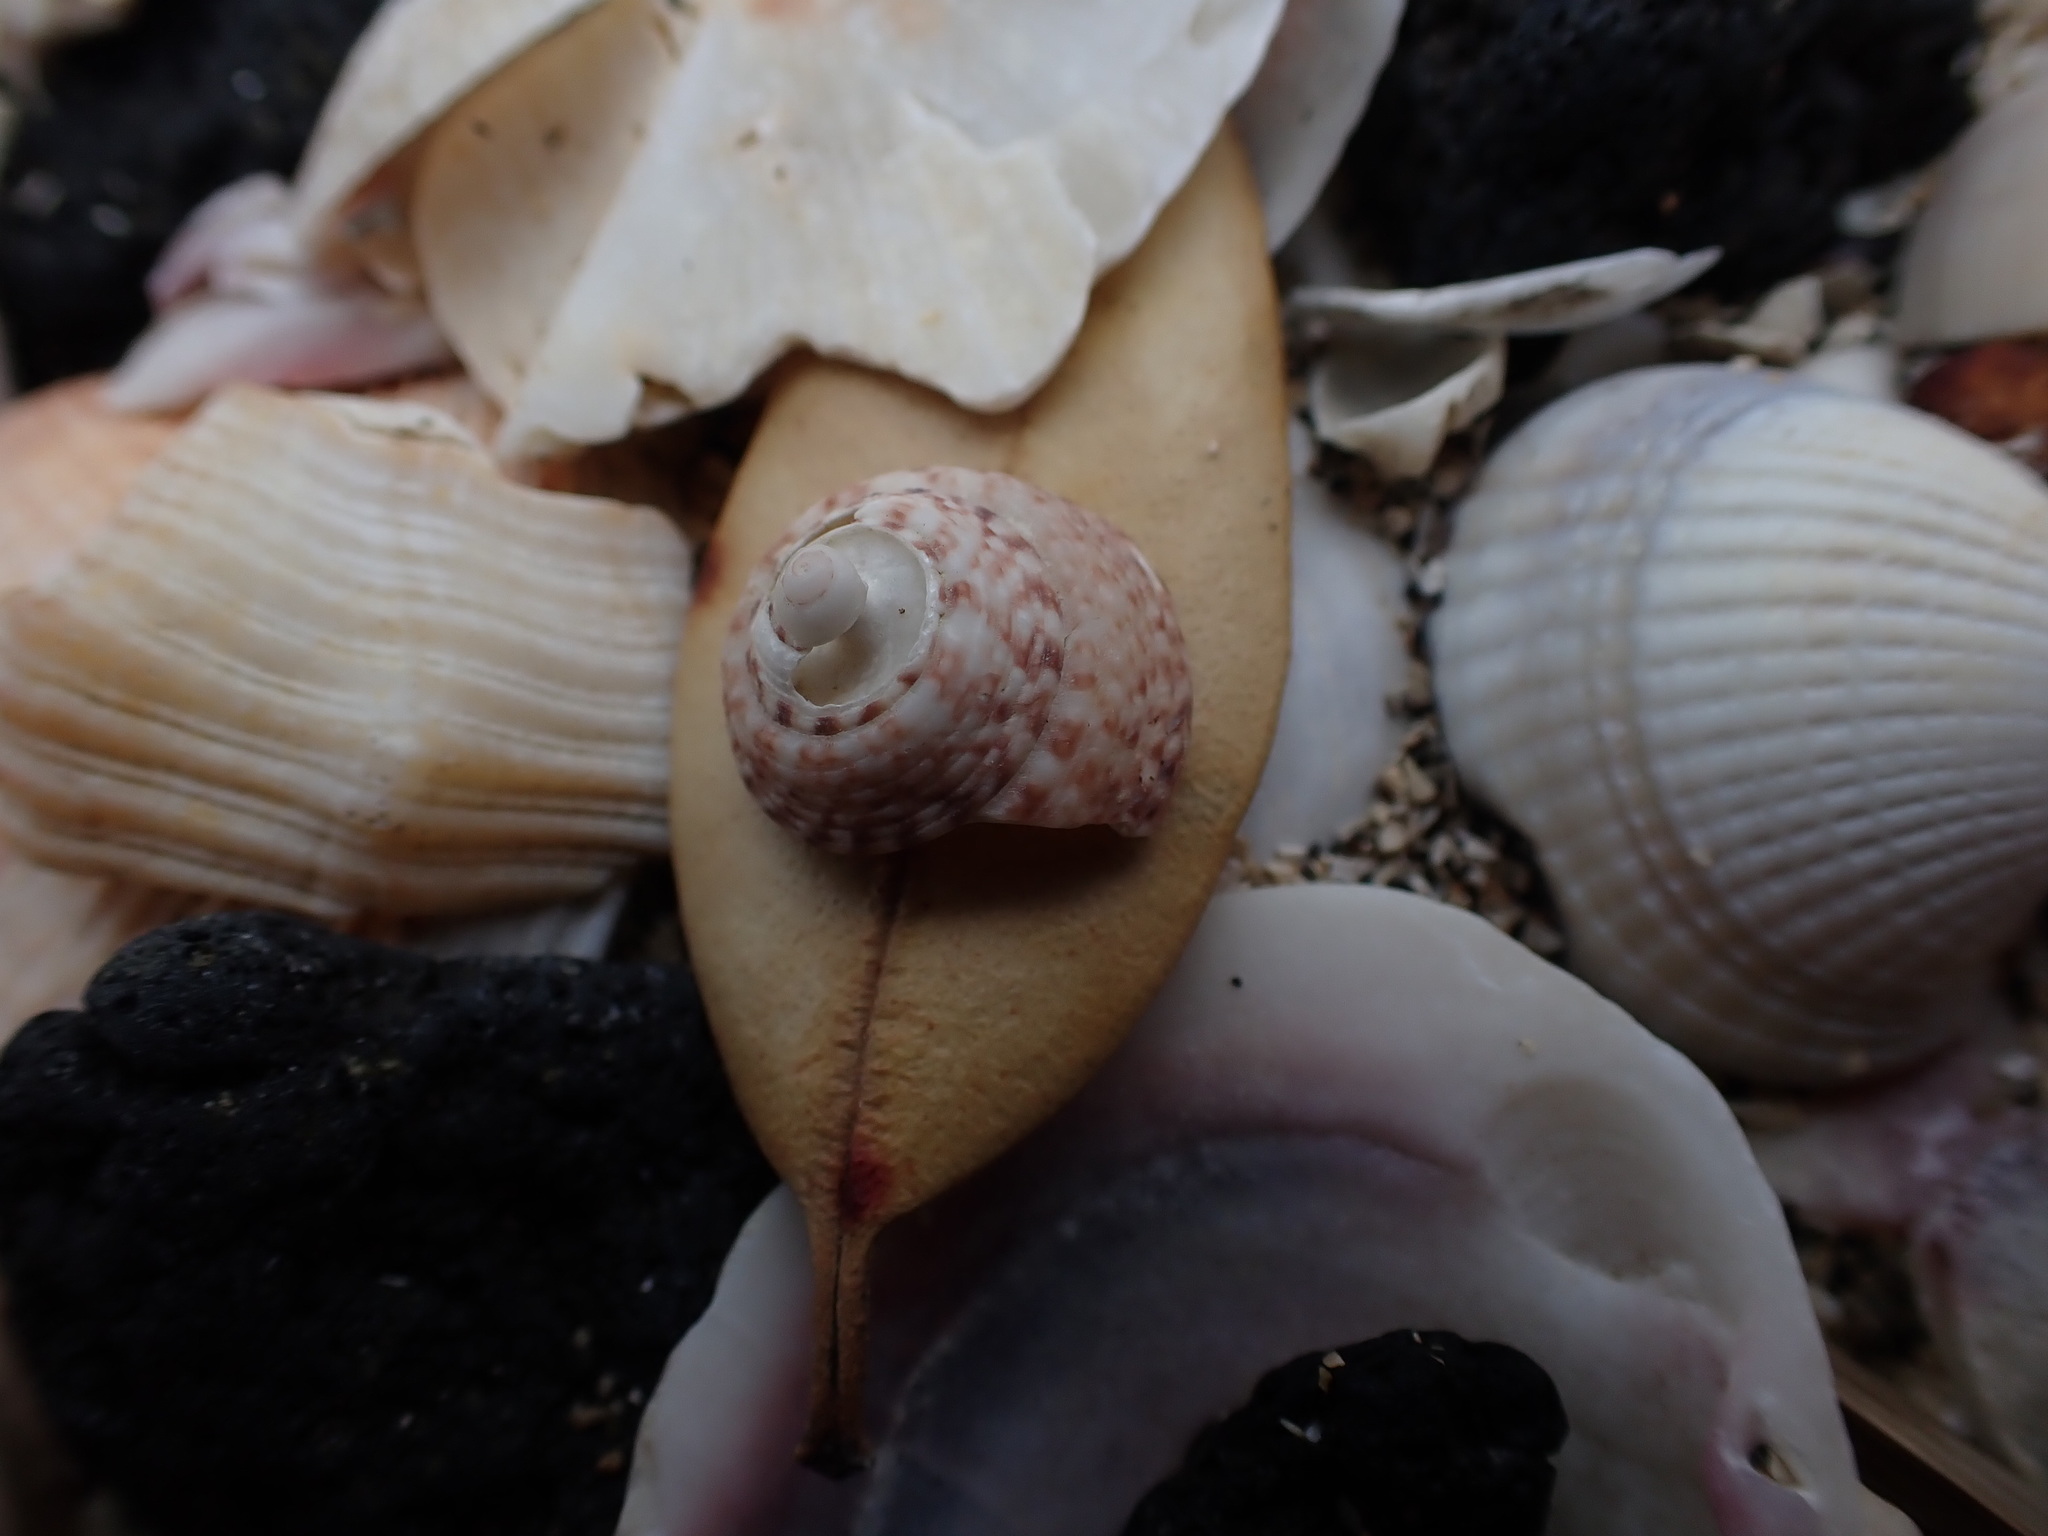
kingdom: Animalia
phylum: Mollusca
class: Gastropoda
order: Trochida
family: Trochidae
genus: Coelotrochus
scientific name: Coelotrochus tiaratus
